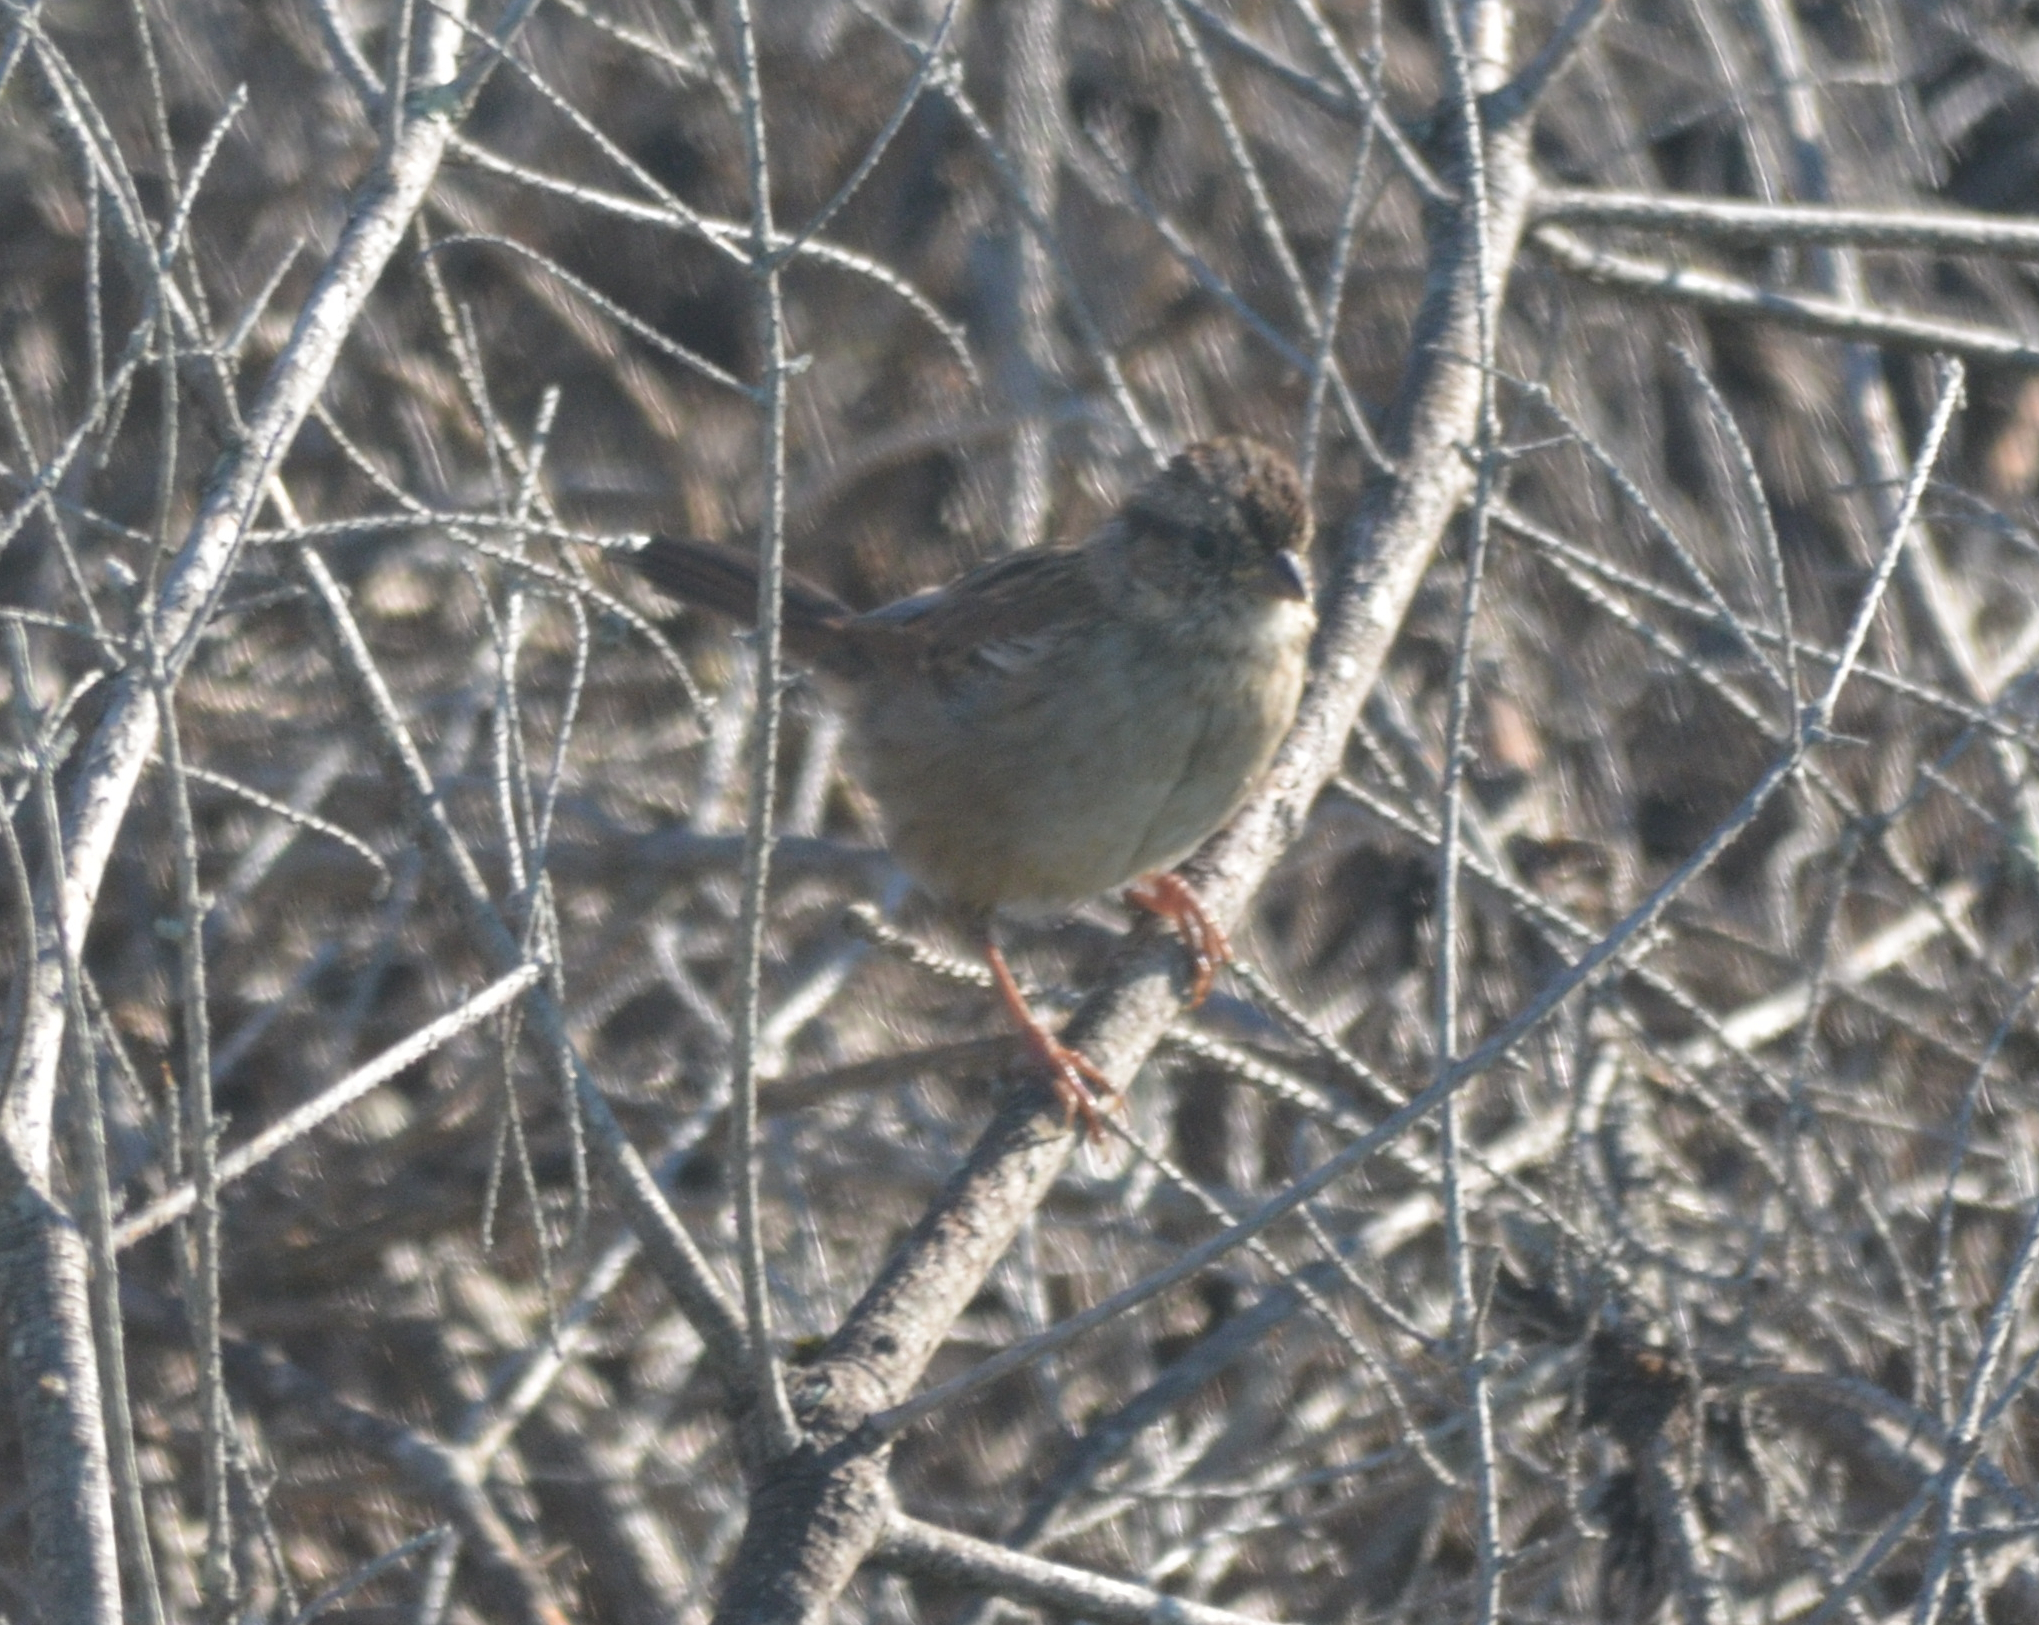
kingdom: Animalia
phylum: Chordata
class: Aves
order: Passeriformes
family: Passerellidae
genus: Melospiza
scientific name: Melospiza georgiana
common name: Swamp sparrow
